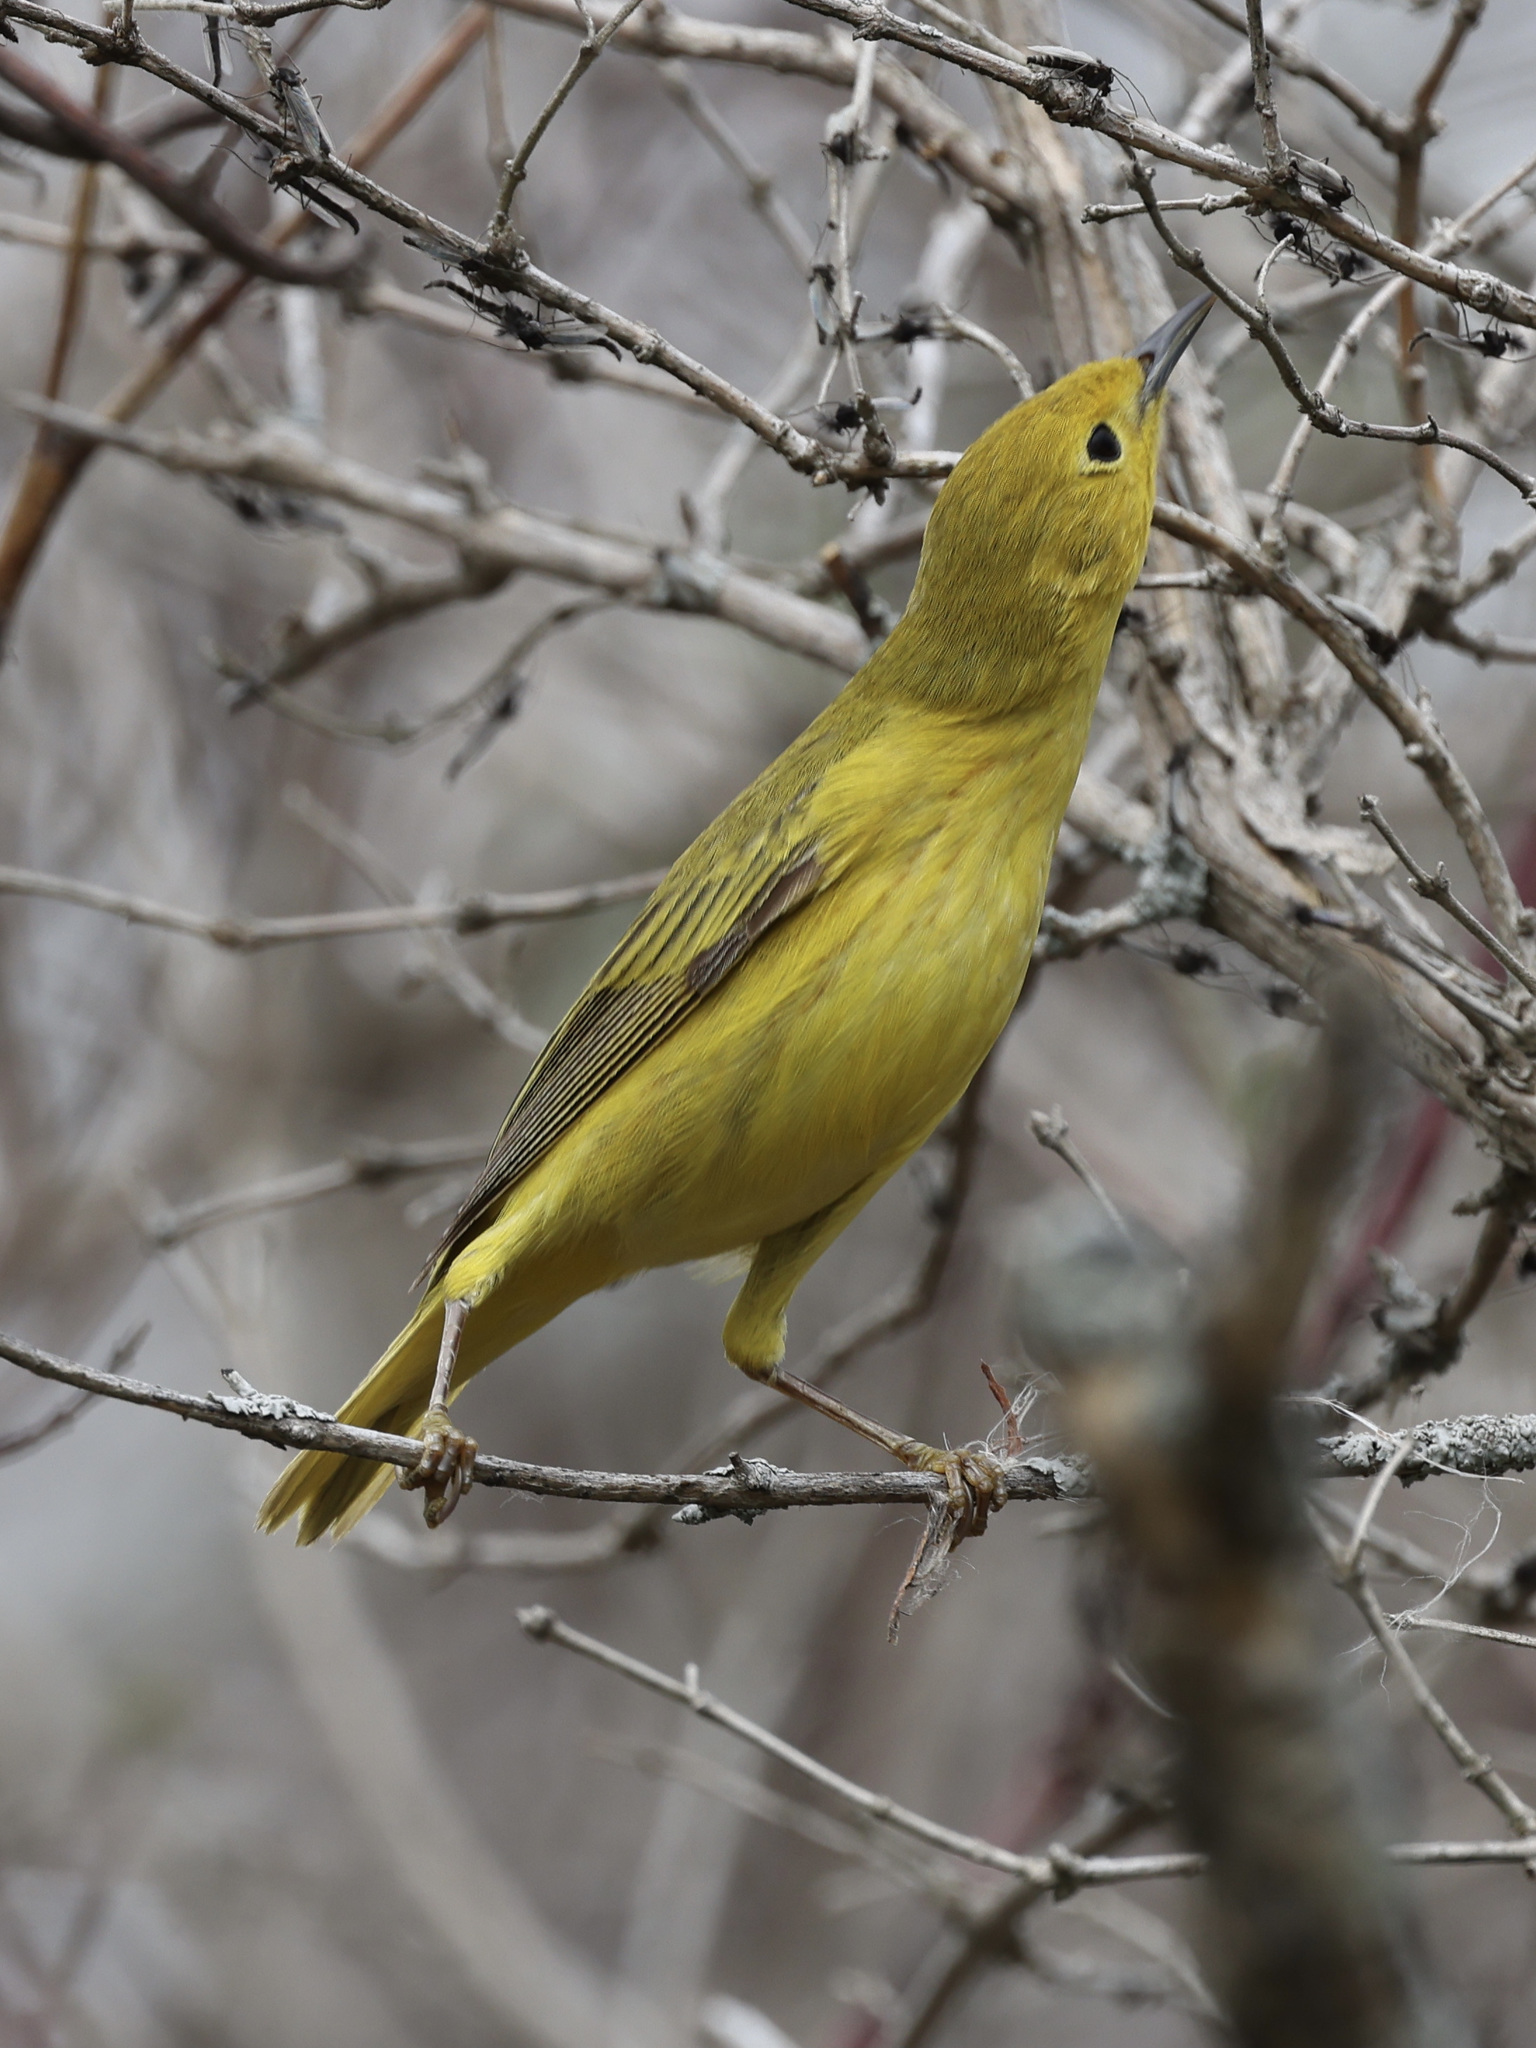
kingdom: Animalia
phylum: Chordata
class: Aves
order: Passeriformes
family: Parulidae
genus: Setophaga
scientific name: Setophaga petechia
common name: Yellow warbler
